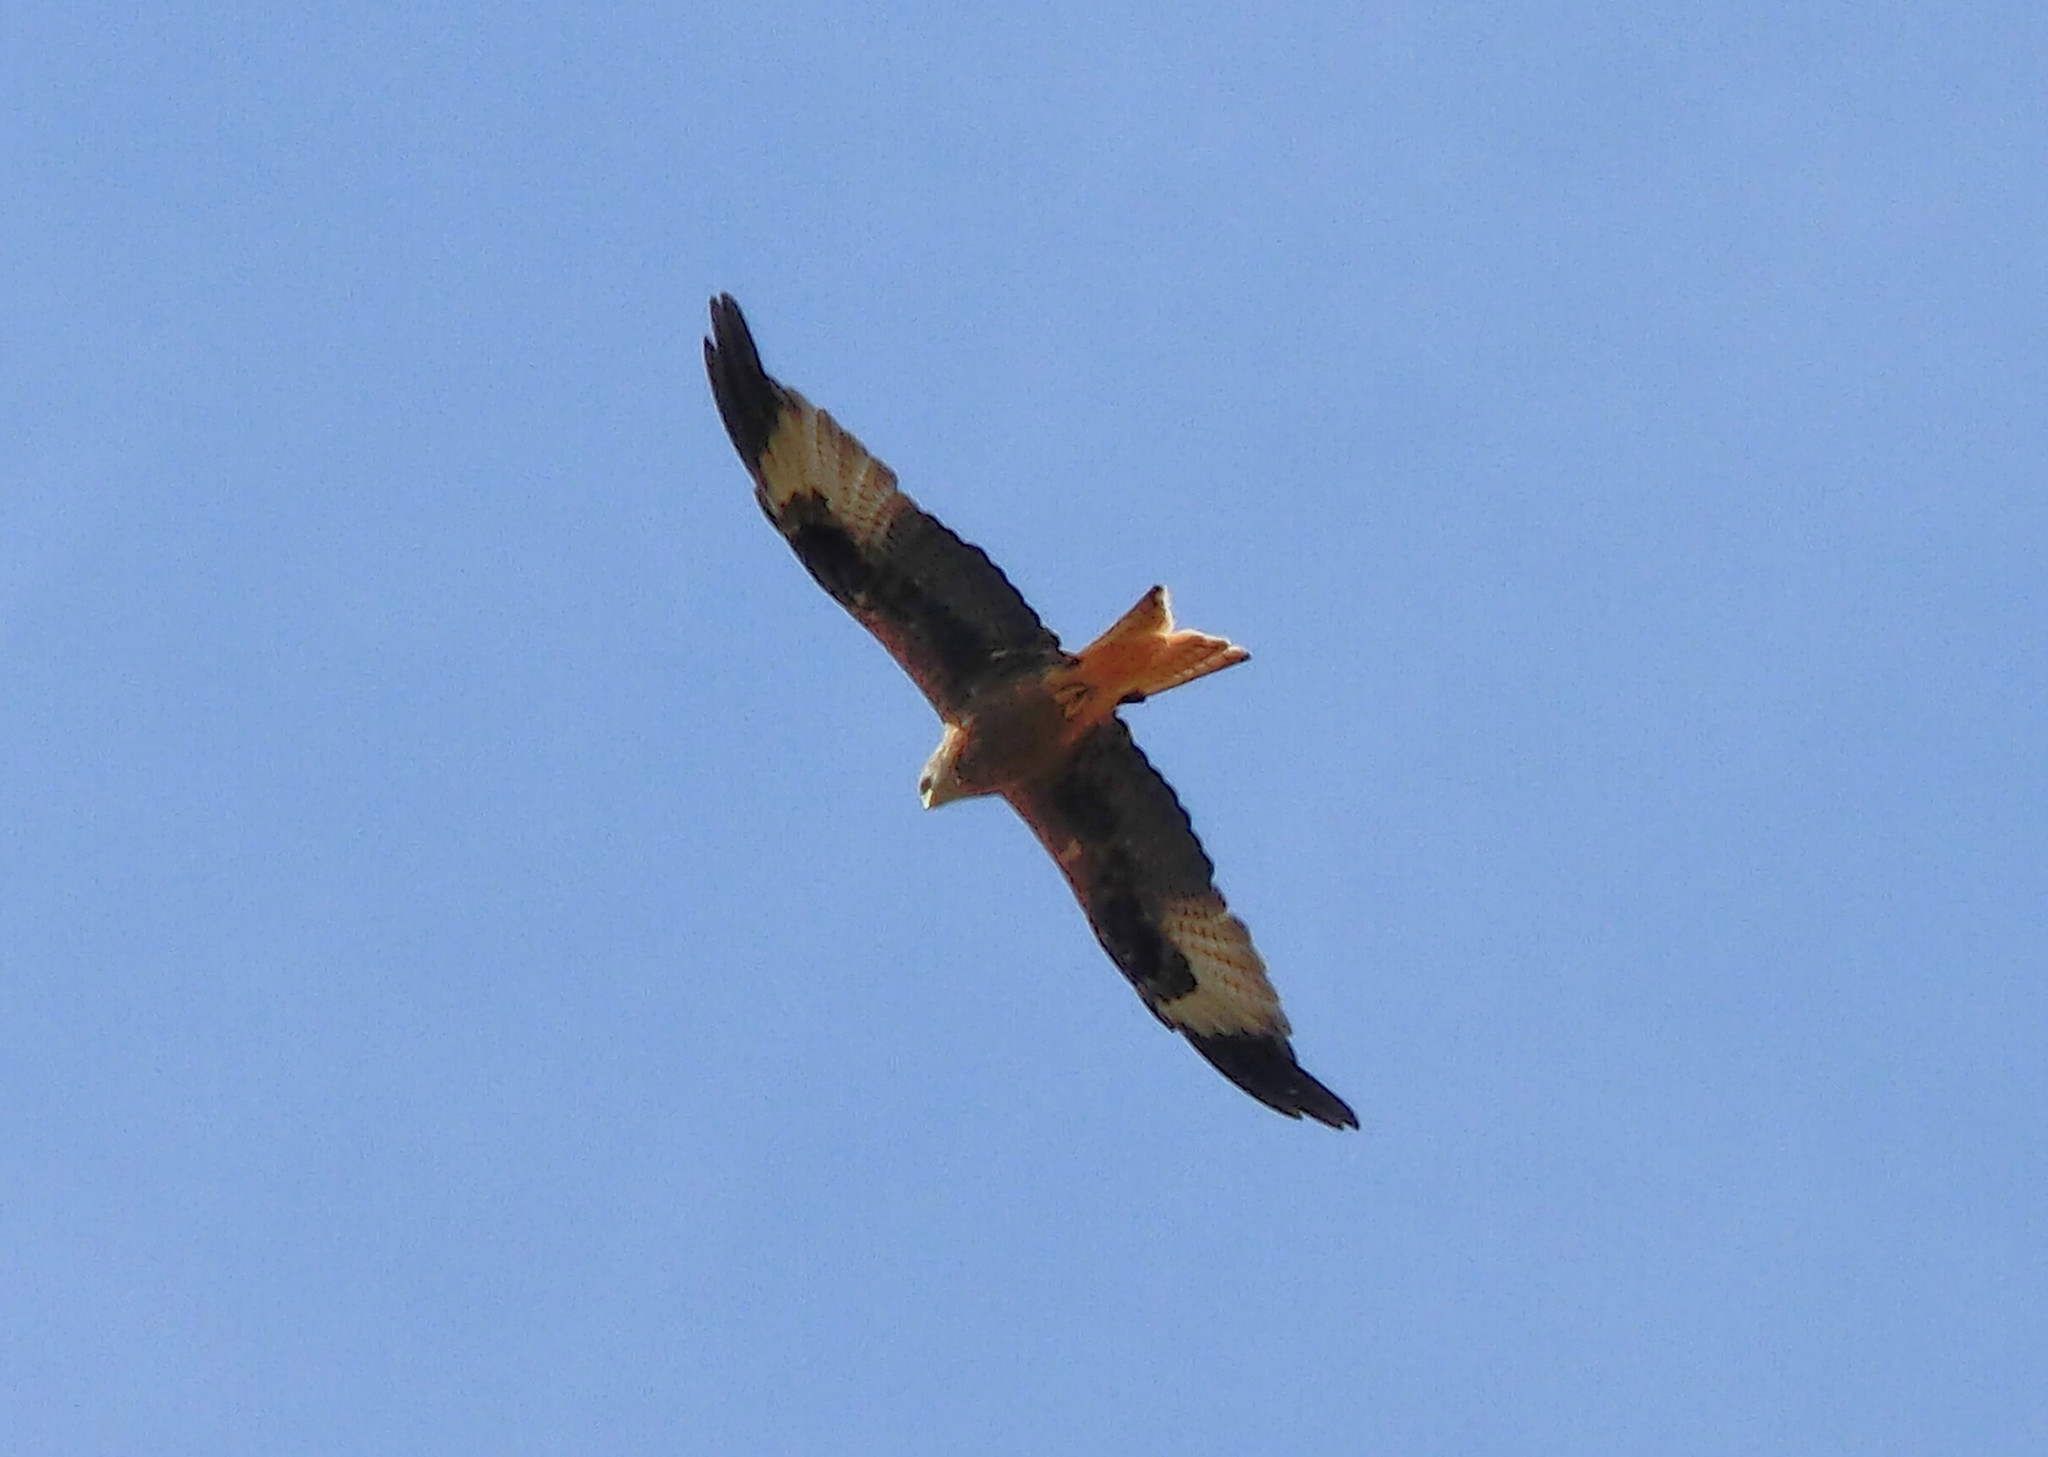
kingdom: Animalia
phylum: Chordata
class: Aves
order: Accipitriformes
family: Accipitridae
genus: Milvus
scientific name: Milvus milvus
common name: Red kite
